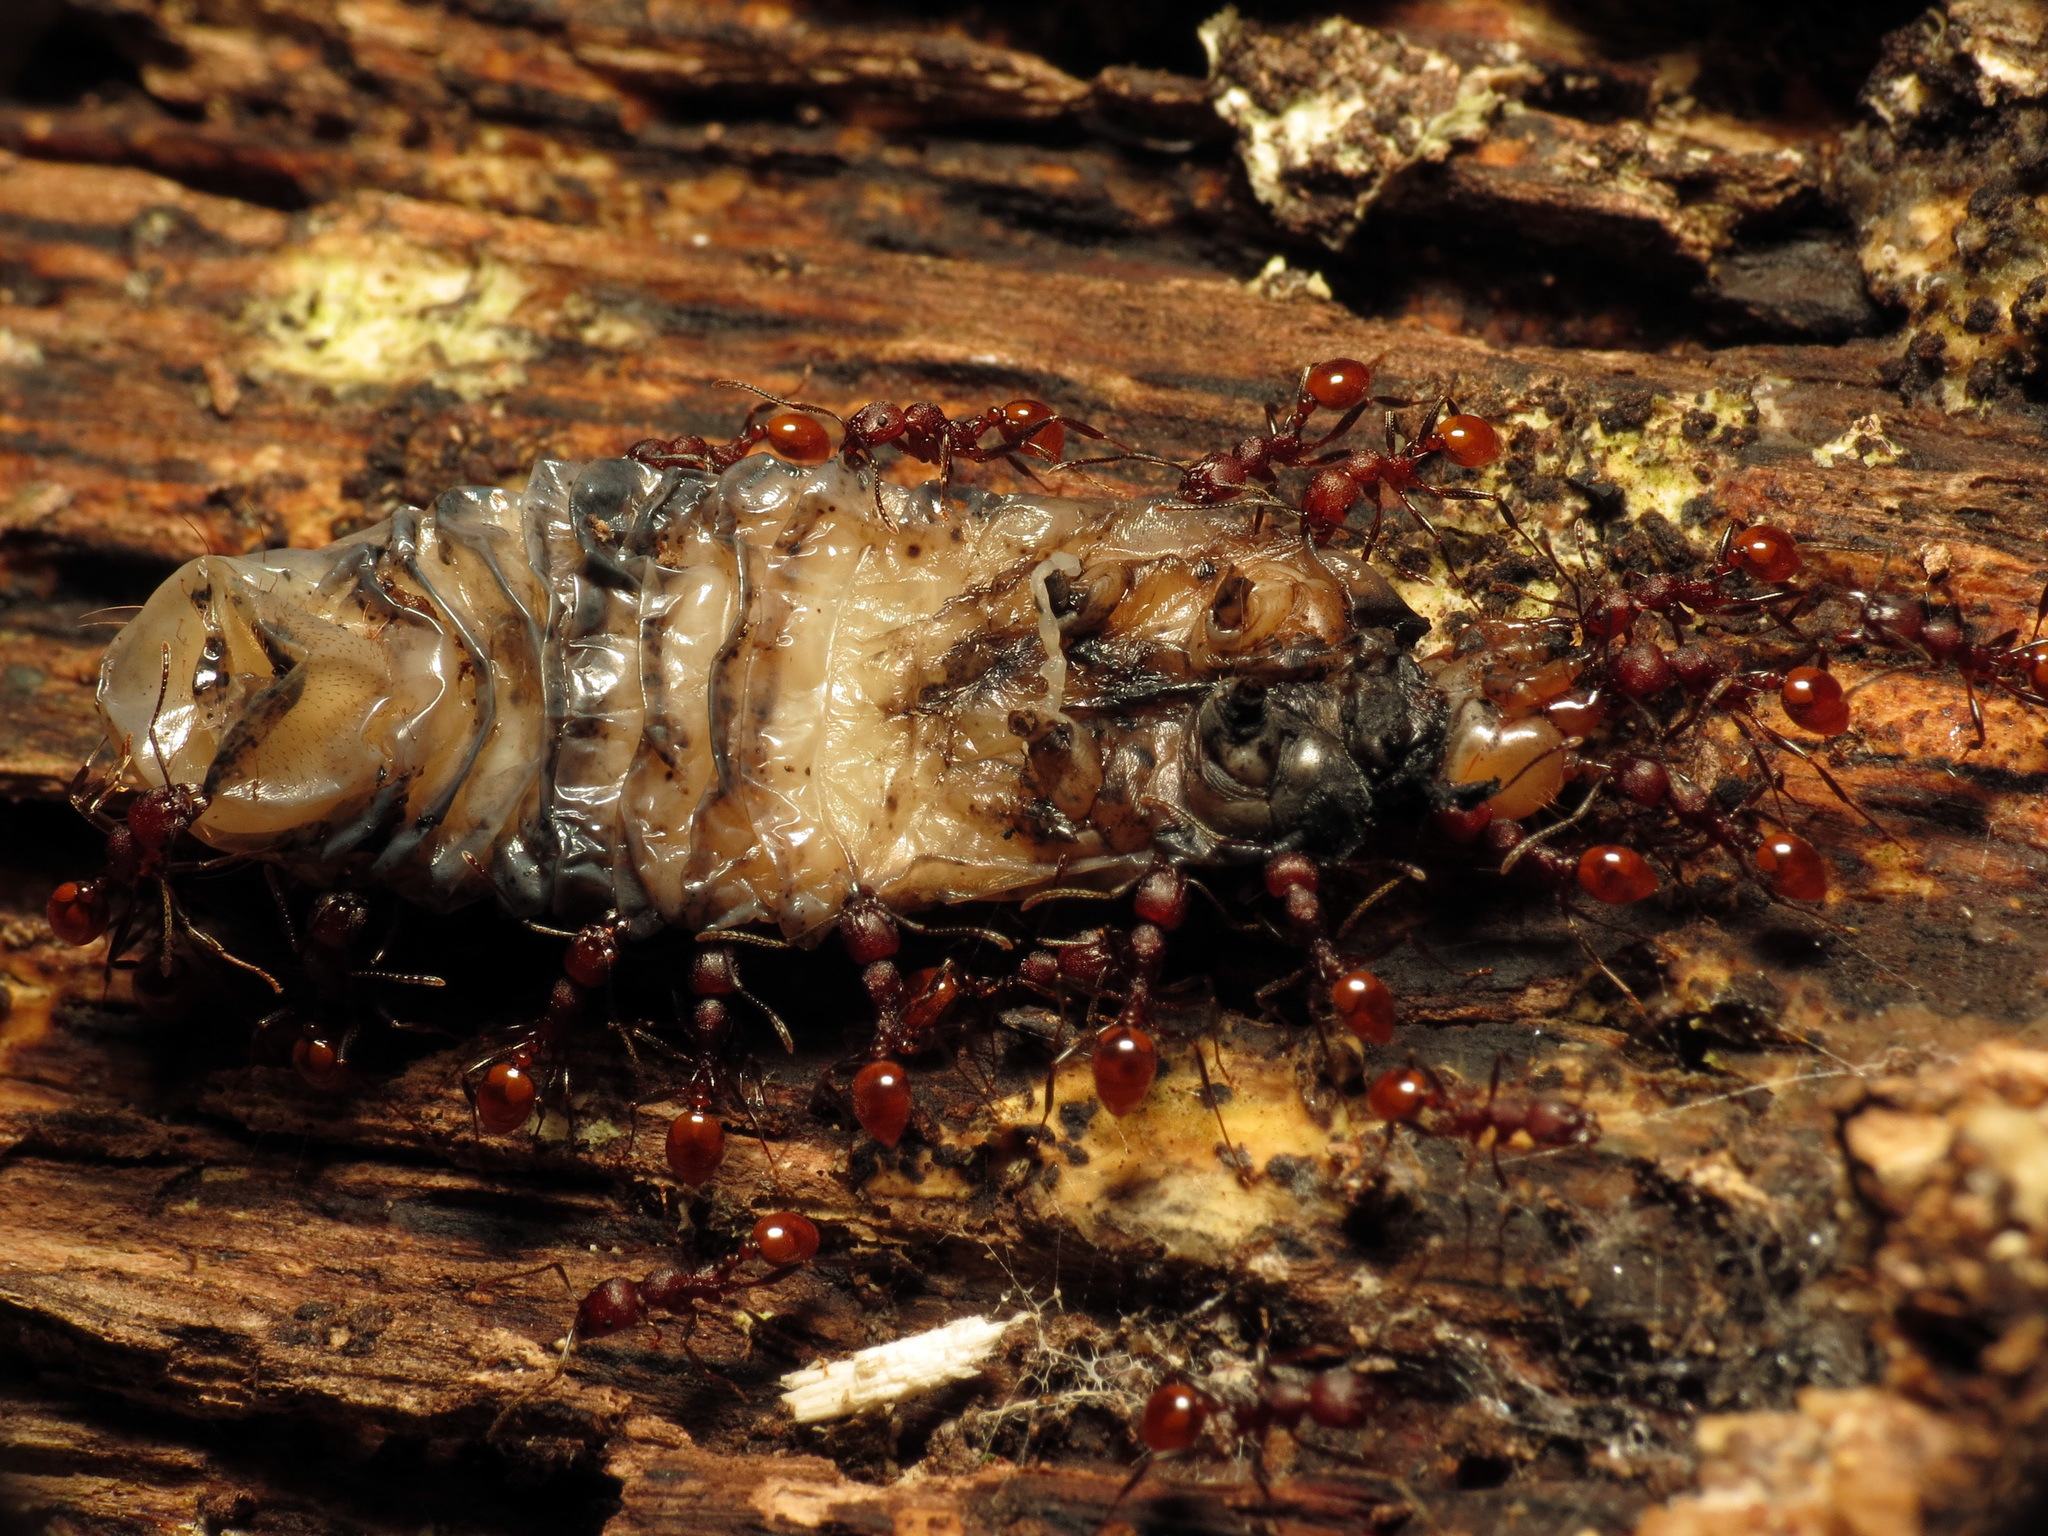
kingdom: Animalia
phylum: Arthropoda
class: Insecta
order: Coleoptera
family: Passalidae
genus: Odontotaenius
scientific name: Odontotaenius disjunctus
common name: Patent leather beetle
